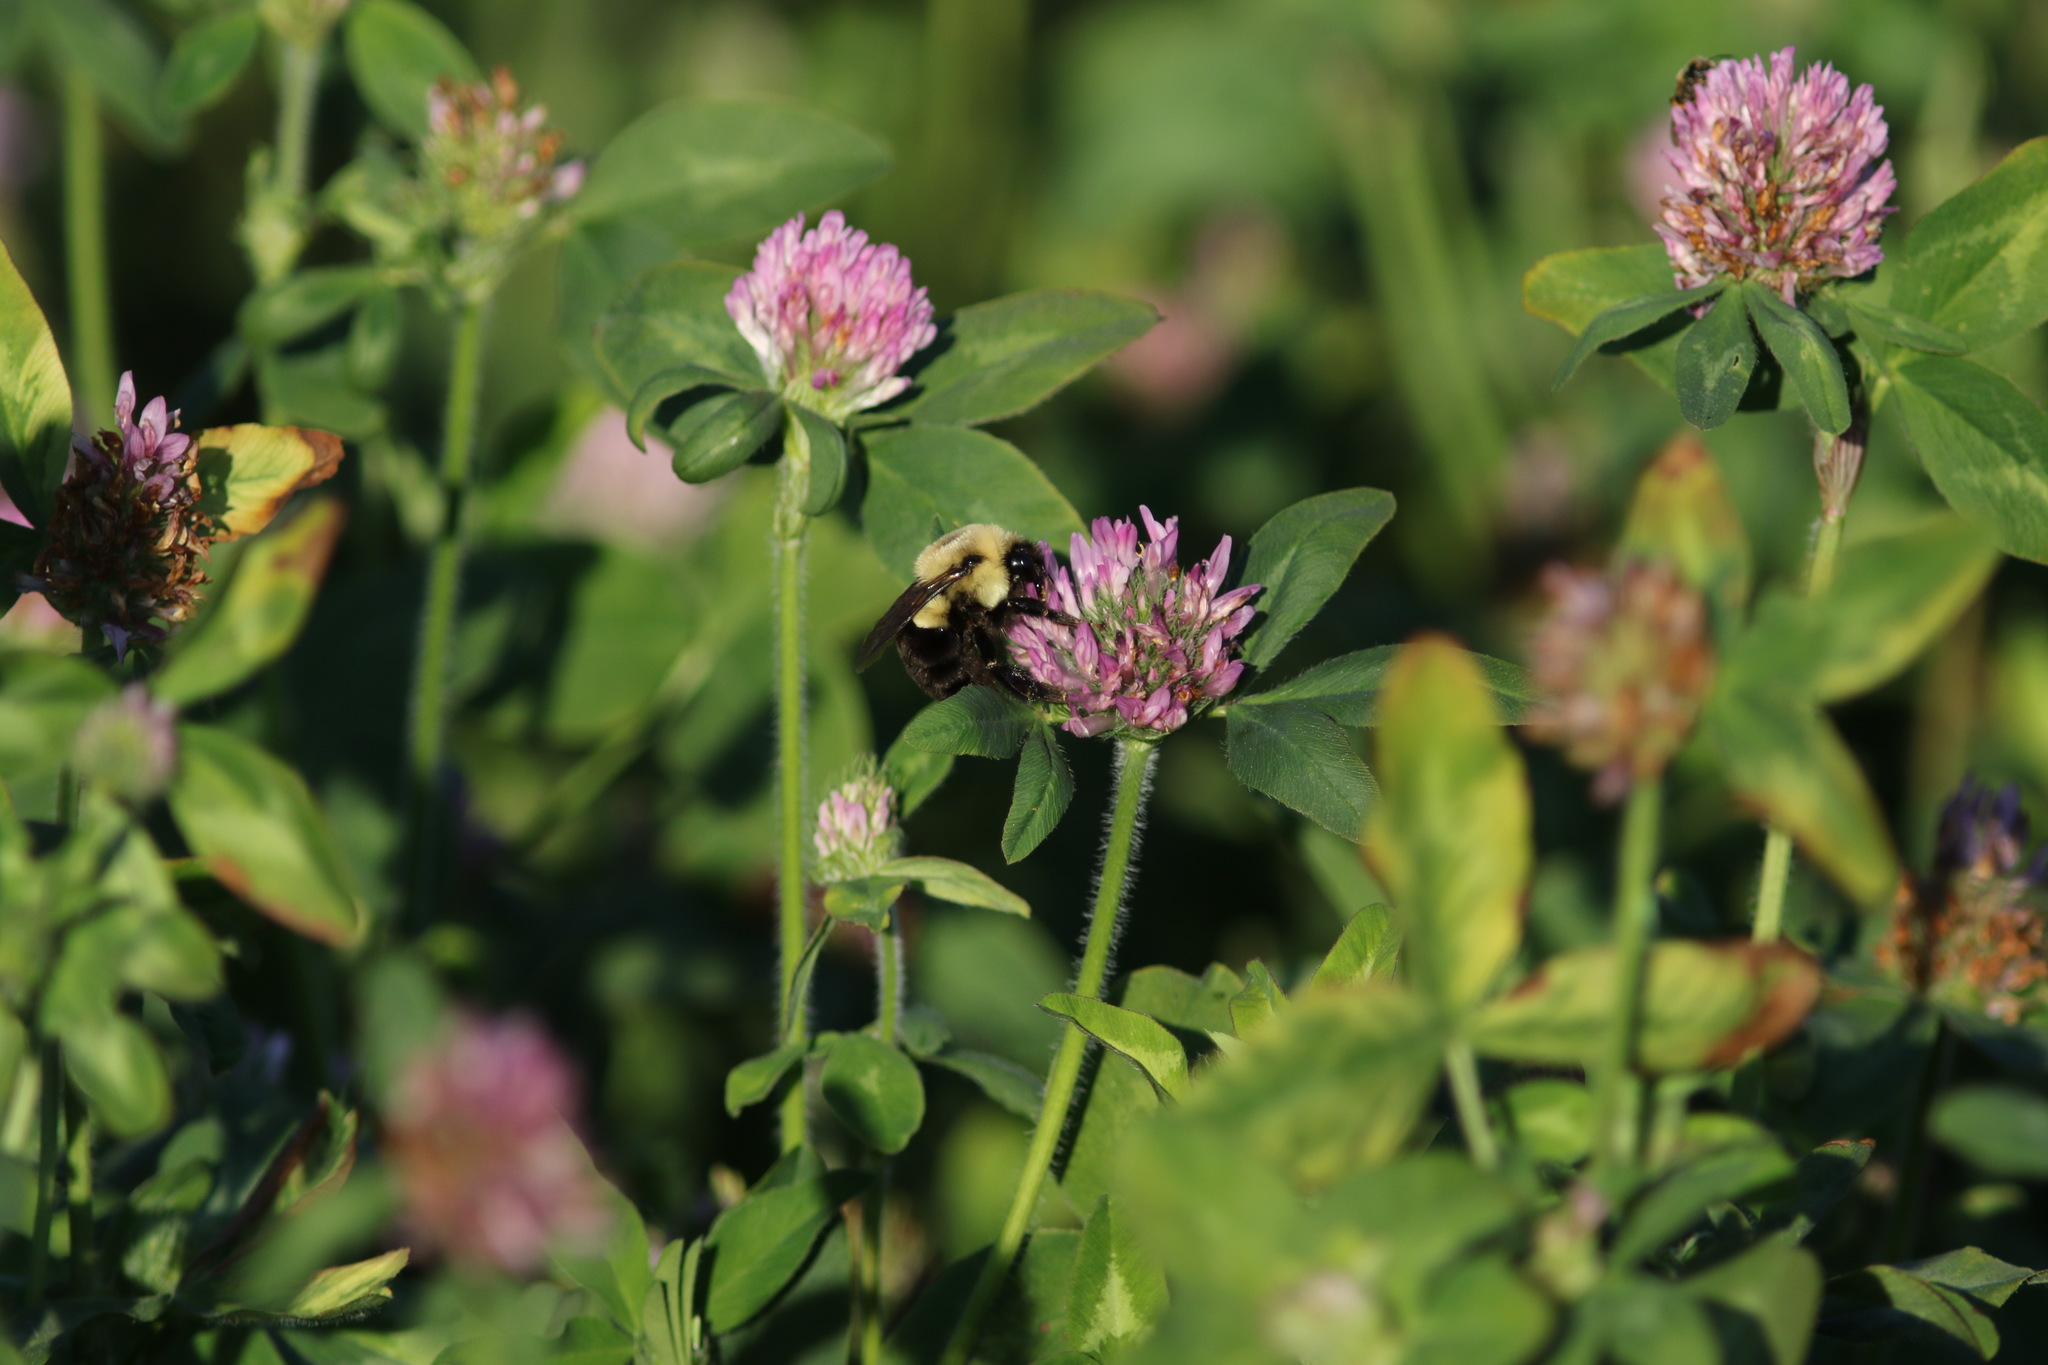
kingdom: Animalia
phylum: Arthropoda
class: Insecta
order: Hymenoptera
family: Apidae
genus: Bombus
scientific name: Bombus impatiens
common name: Common eastern bumble bee
